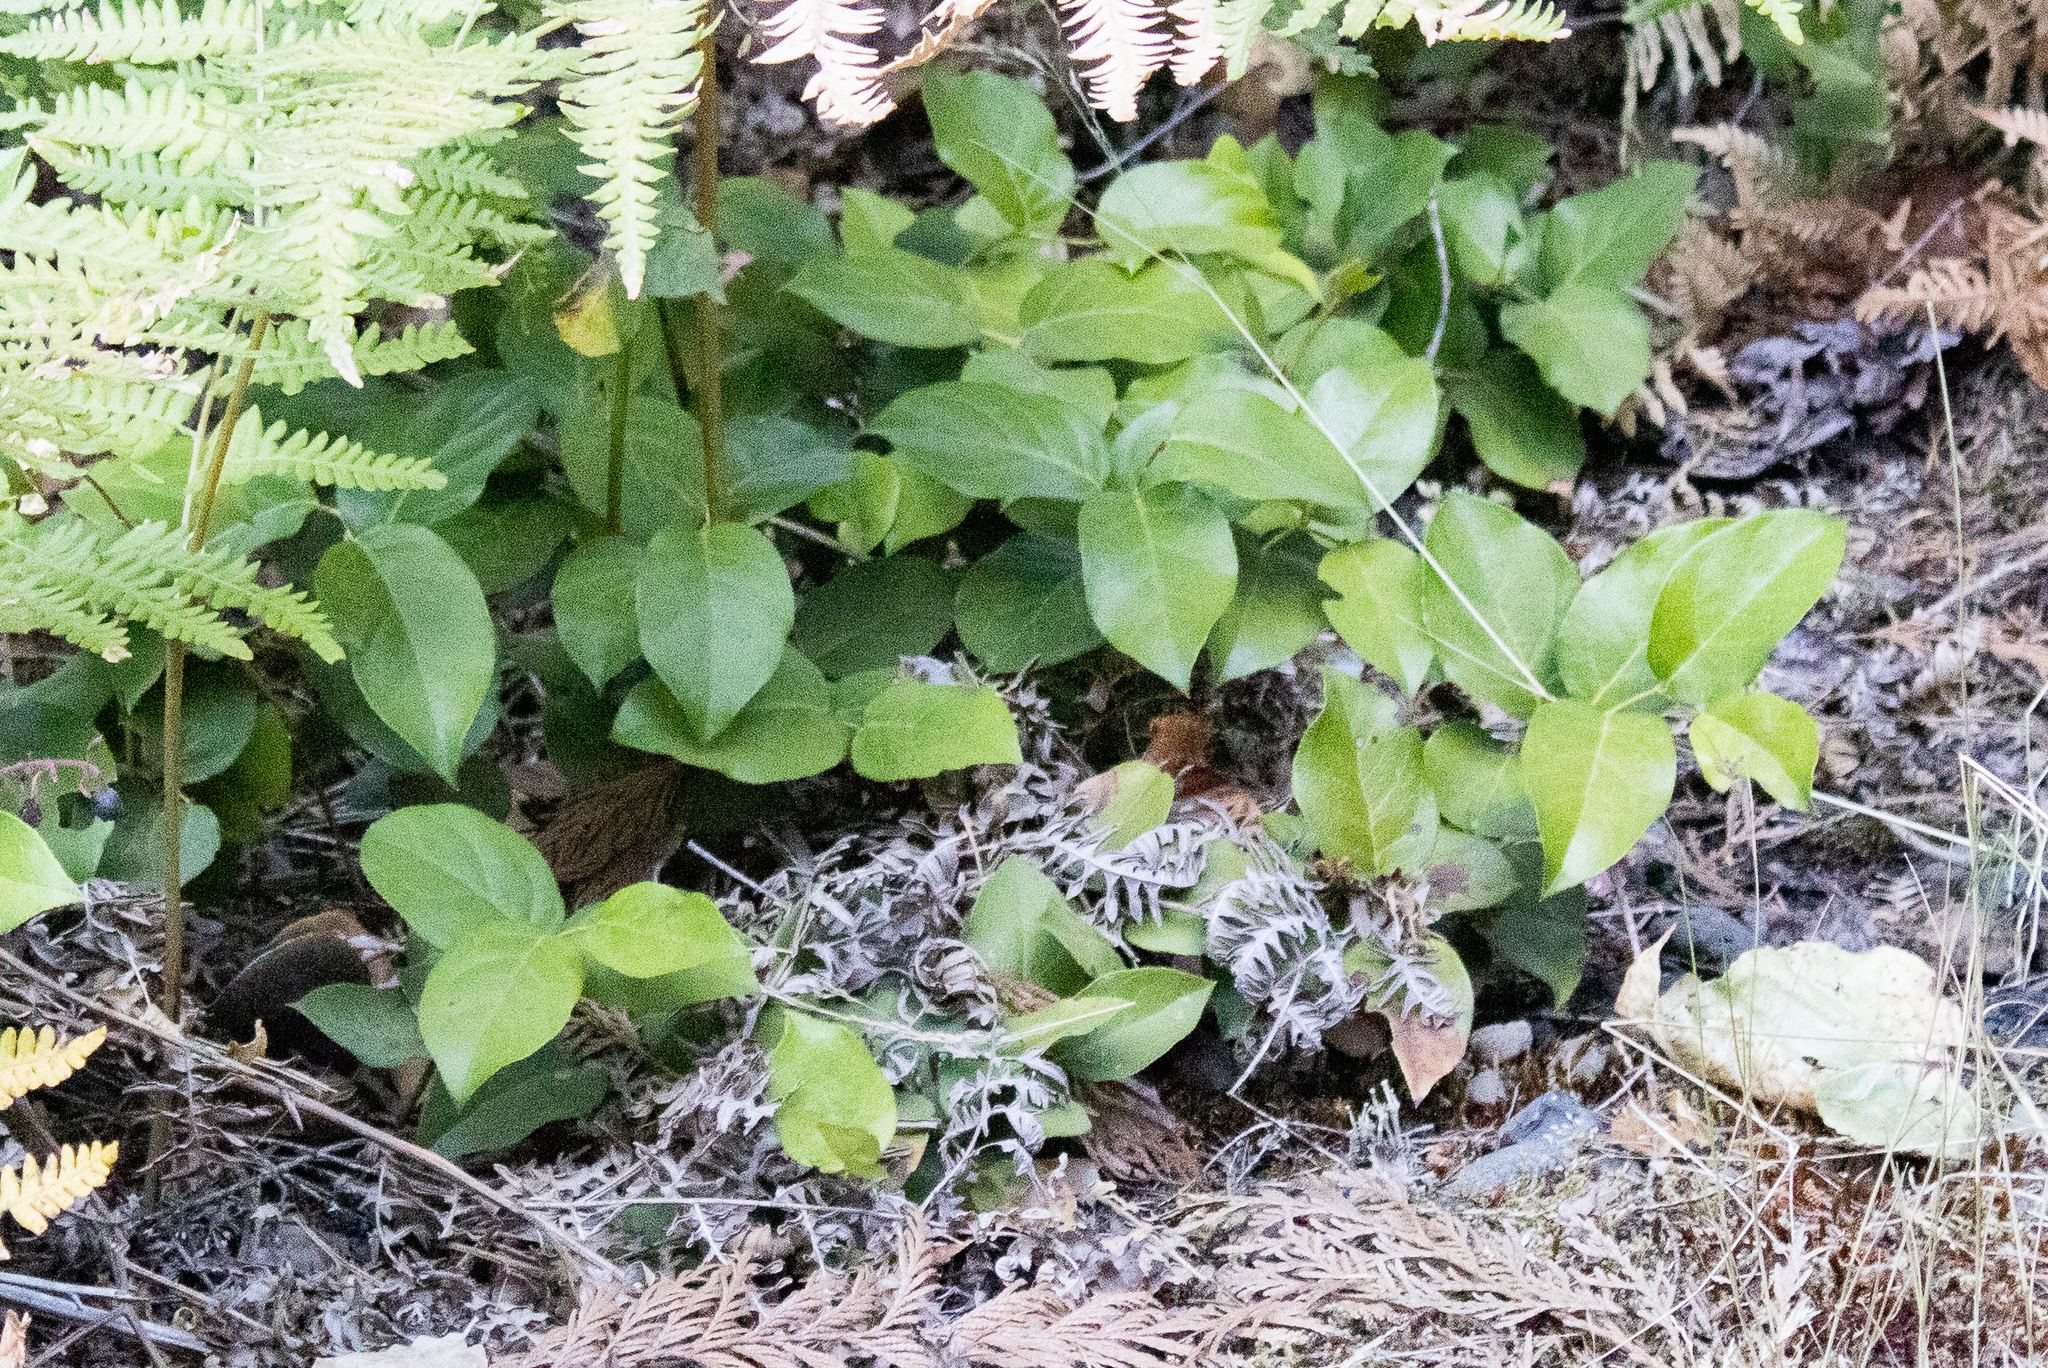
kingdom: Plantae
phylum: Tracheophyta
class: Magnoliopsida
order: Ericales
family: Ericaceae
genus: Gaultheria
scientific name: Gaultheria shallon
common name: Shallon
